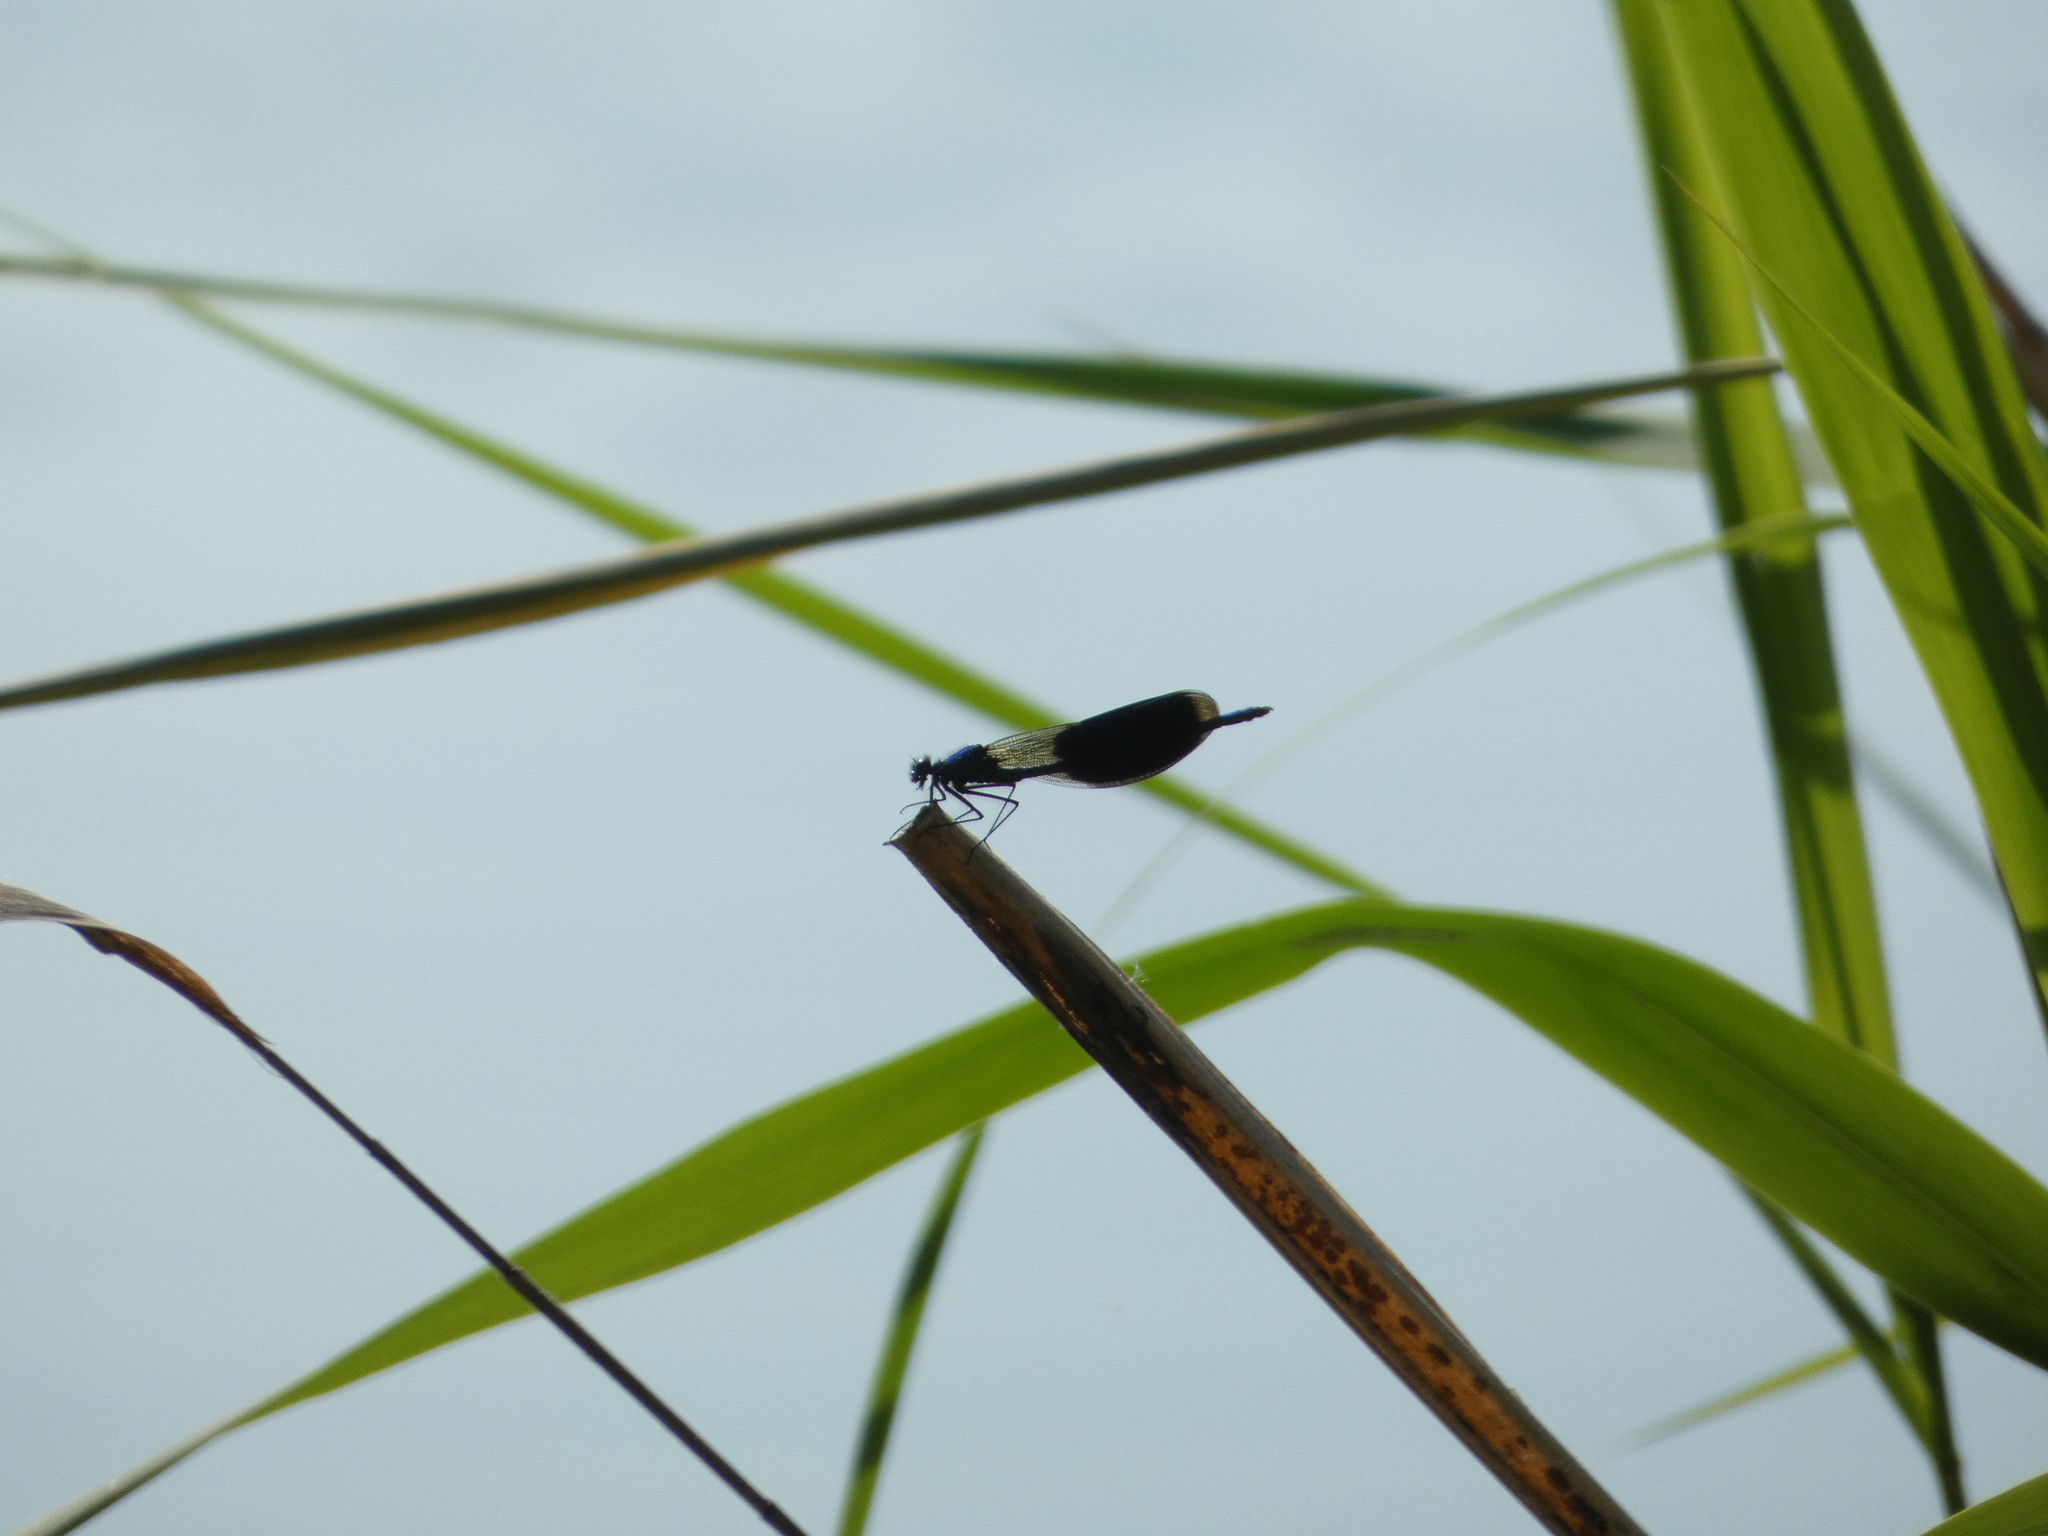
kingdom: Animalia
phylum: Arthropoda
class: Insecta
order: Odonata
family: Calopterygidae
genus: Calopteryx
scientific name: Calopteryx splendens
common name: Banded demoiselle
